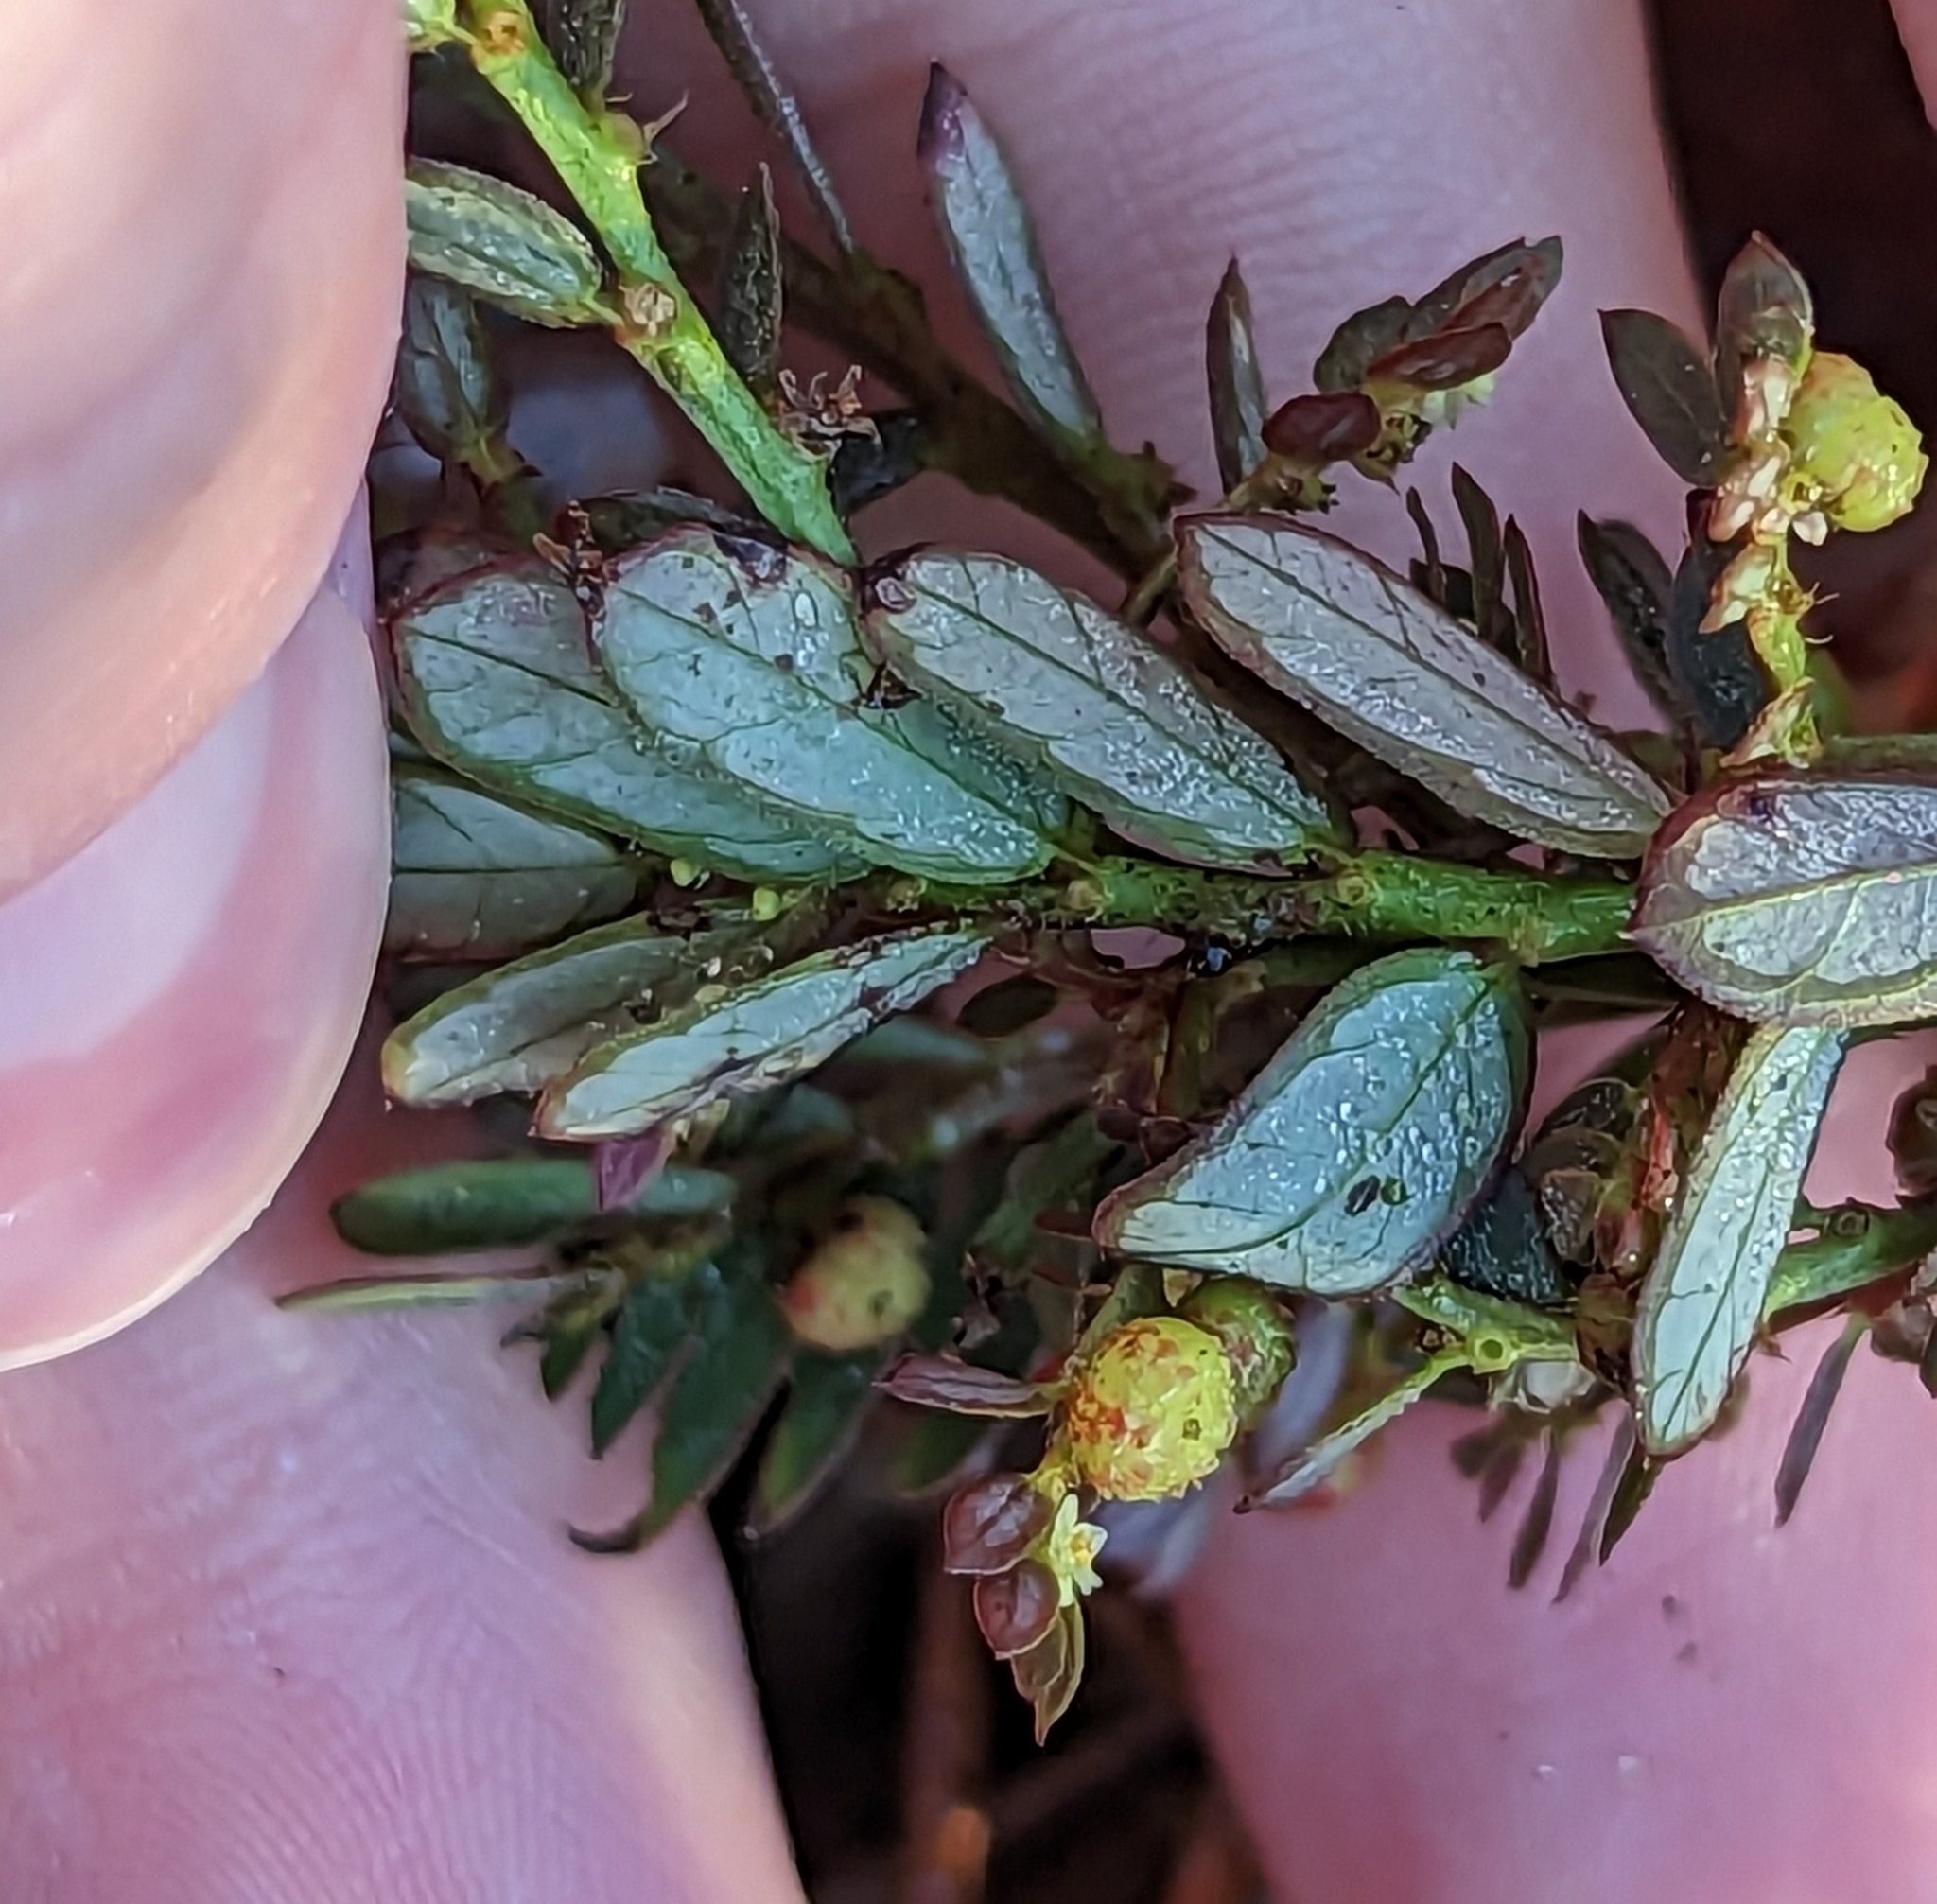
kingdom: Plantae
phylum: Tracheophyta
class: Magnoliopsida
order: Malpighiales
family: Phyllanthaceae
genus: Phyllanthus
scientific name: Phyllanthus urinaria
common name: Chamber bitter
